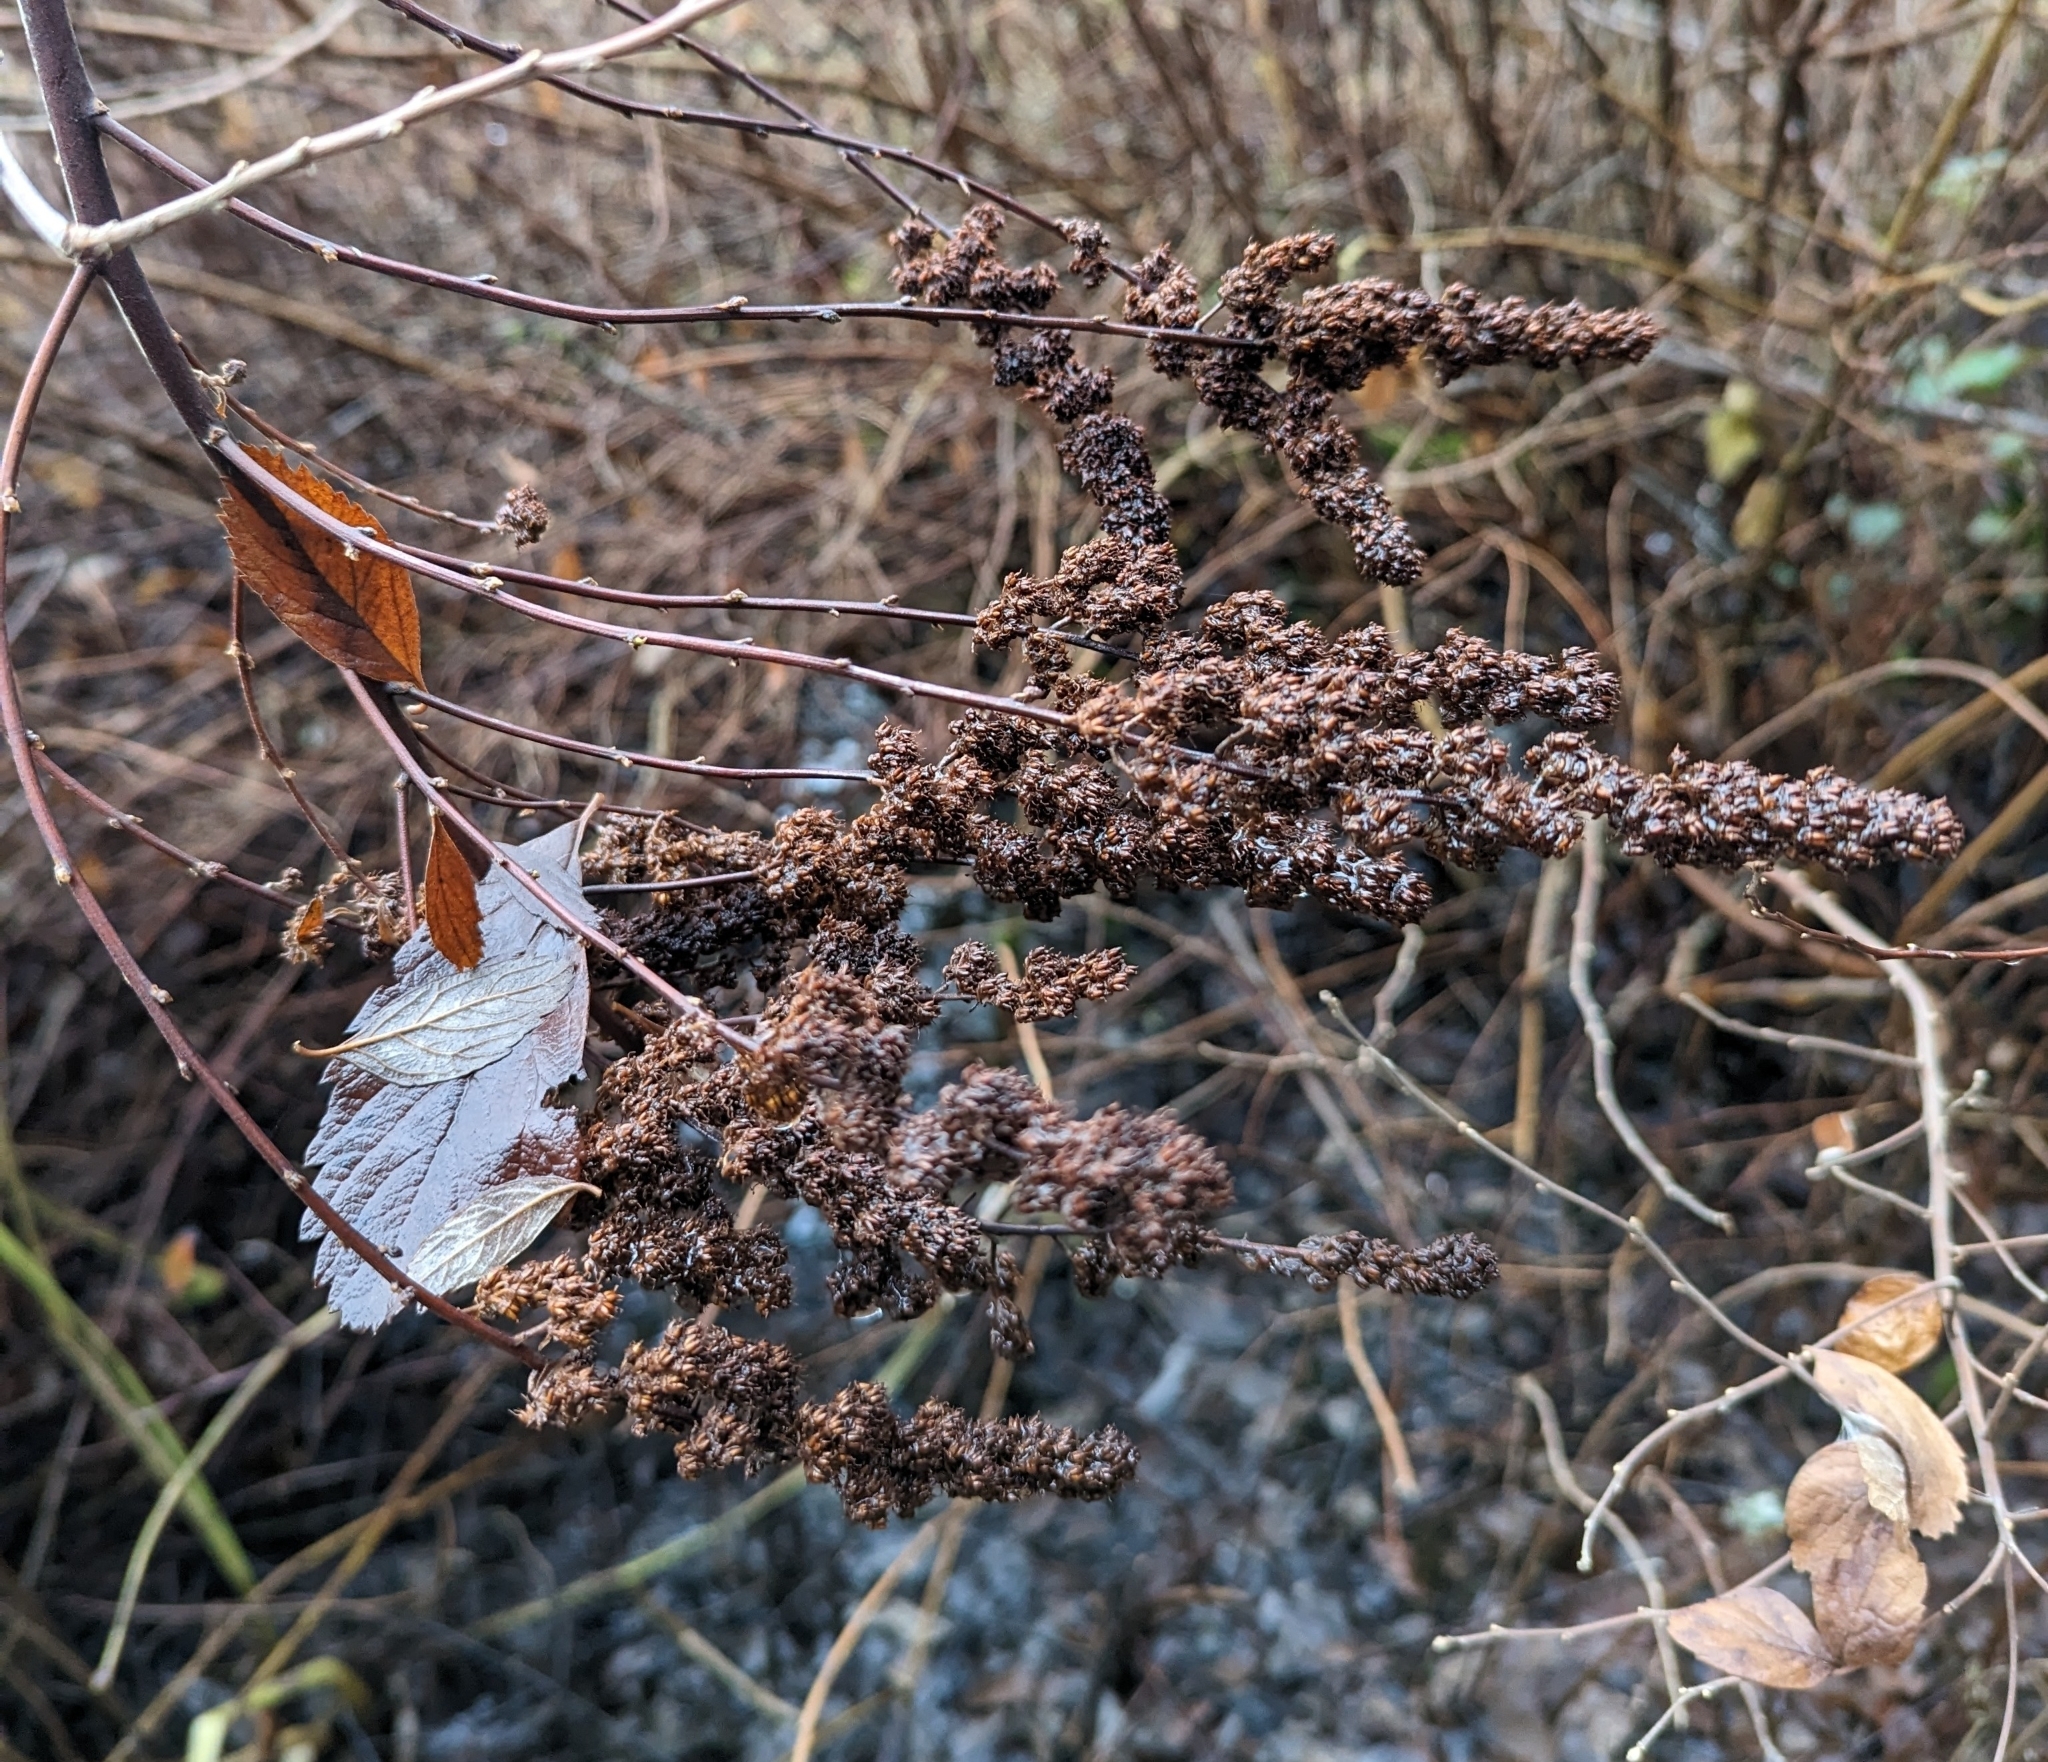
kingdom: Plantae
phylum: Tracheophyta
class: Magnoliopsida
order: Rosales
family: Rosaceae
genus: Spiraea
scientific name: Spiraea douglasii
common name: Steeplebush
